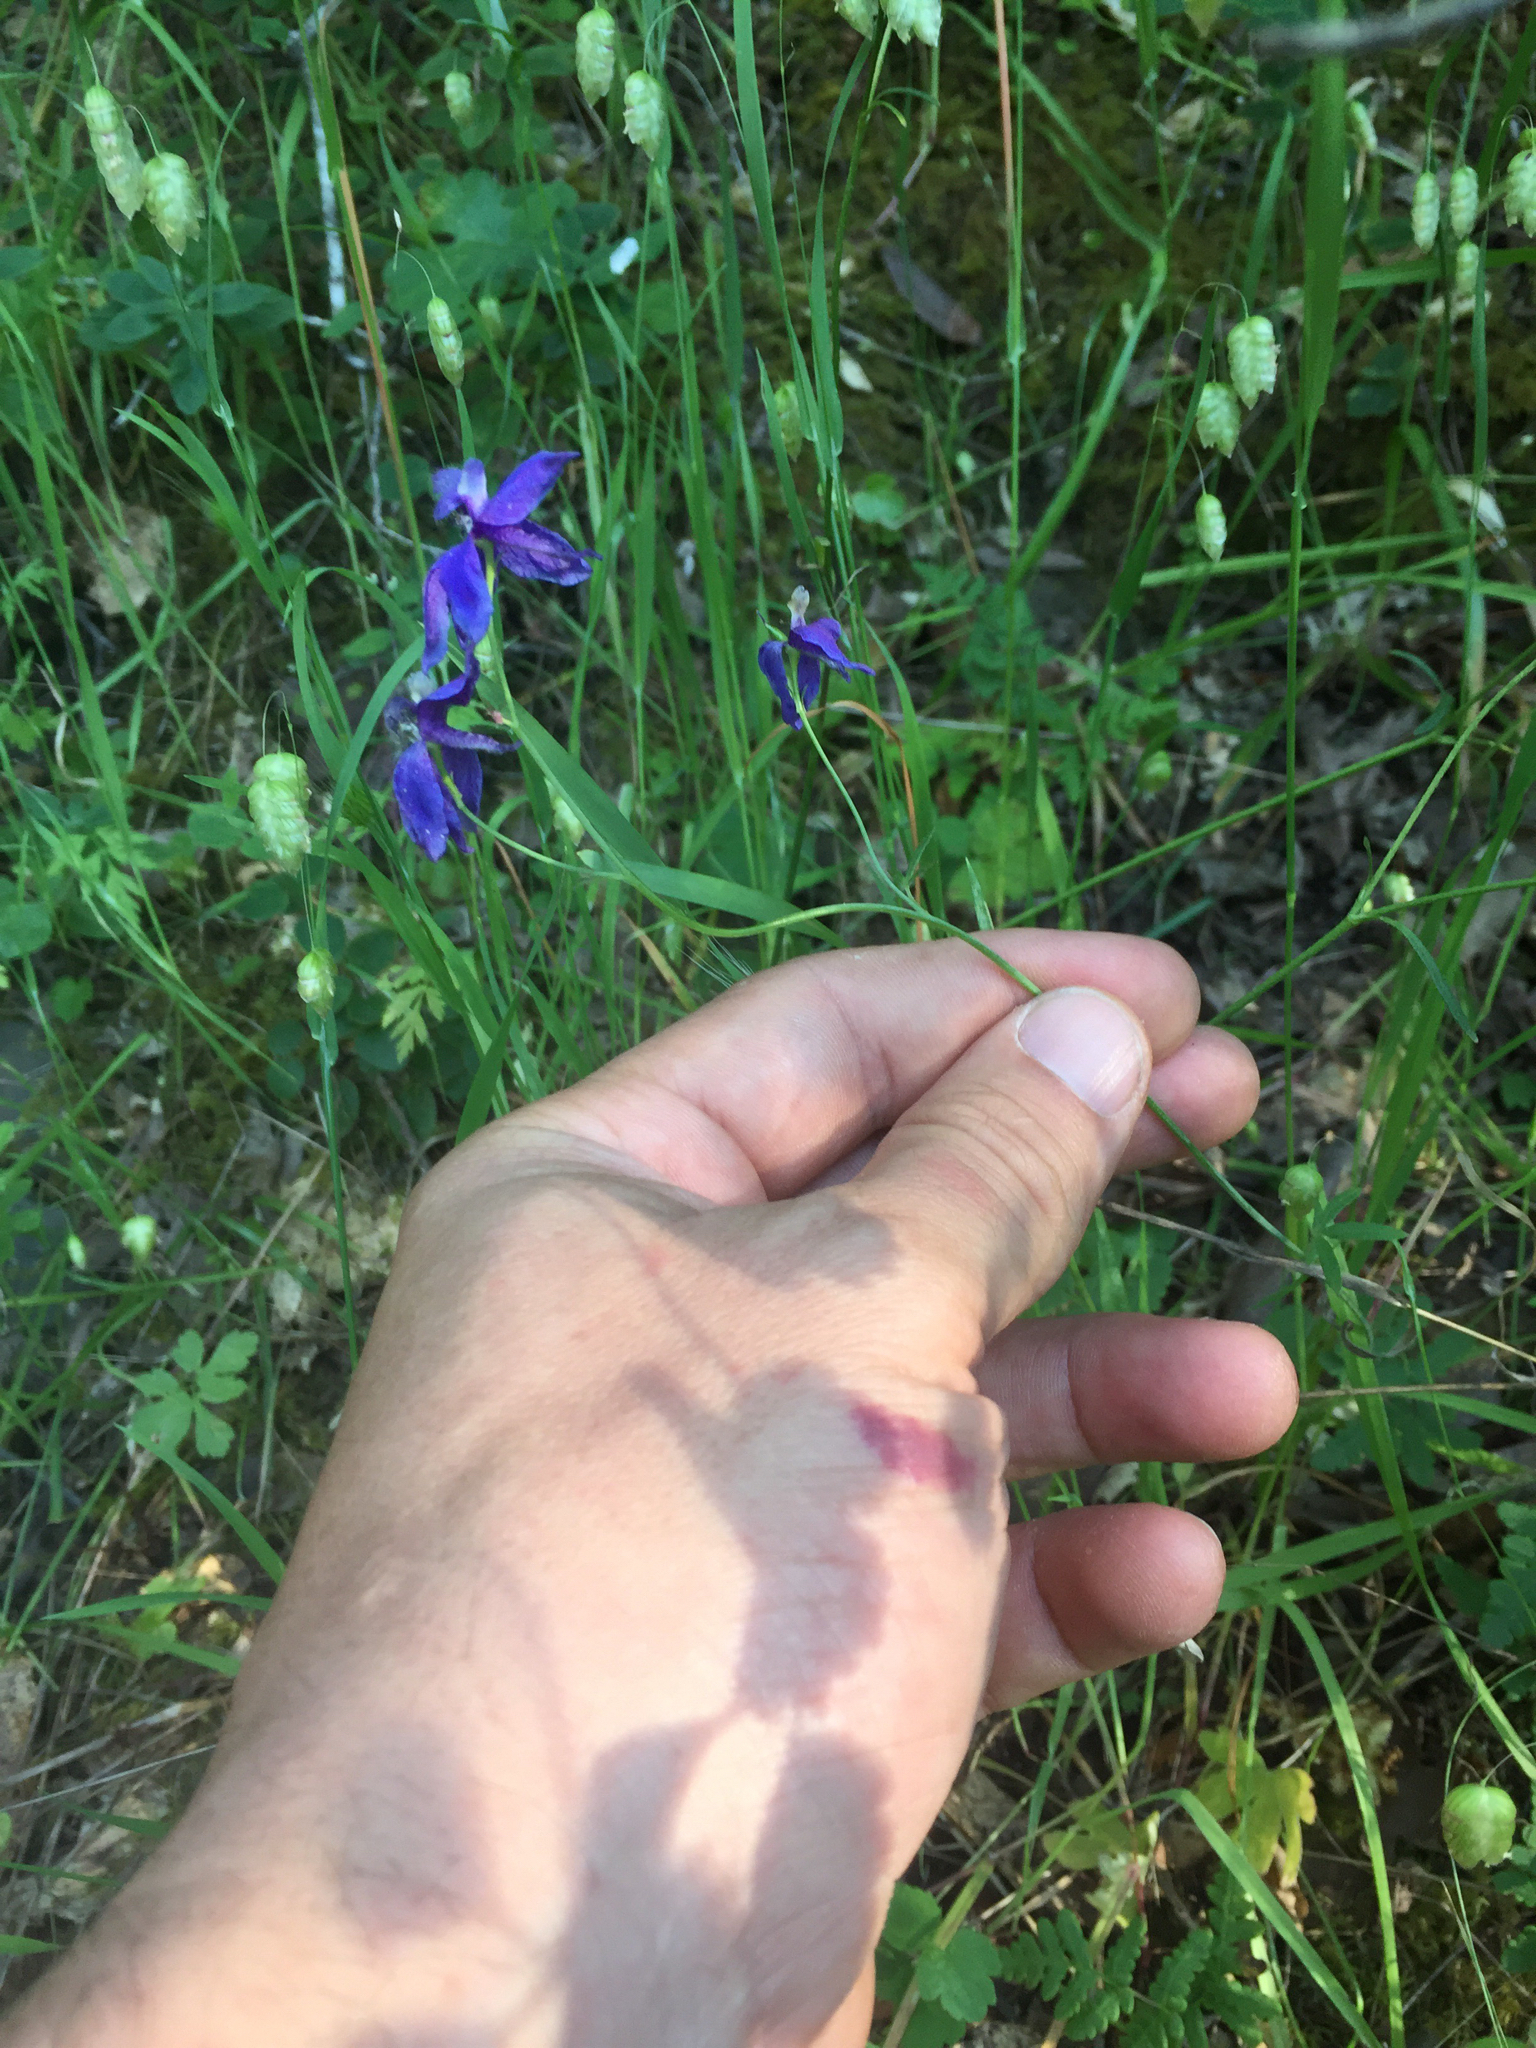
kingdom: Plantae
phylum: Tracheophyta
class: Magnoliopsida
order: Ranunculales
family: Ranunculaceae
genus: Delphinium
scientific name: Delphinium patens
